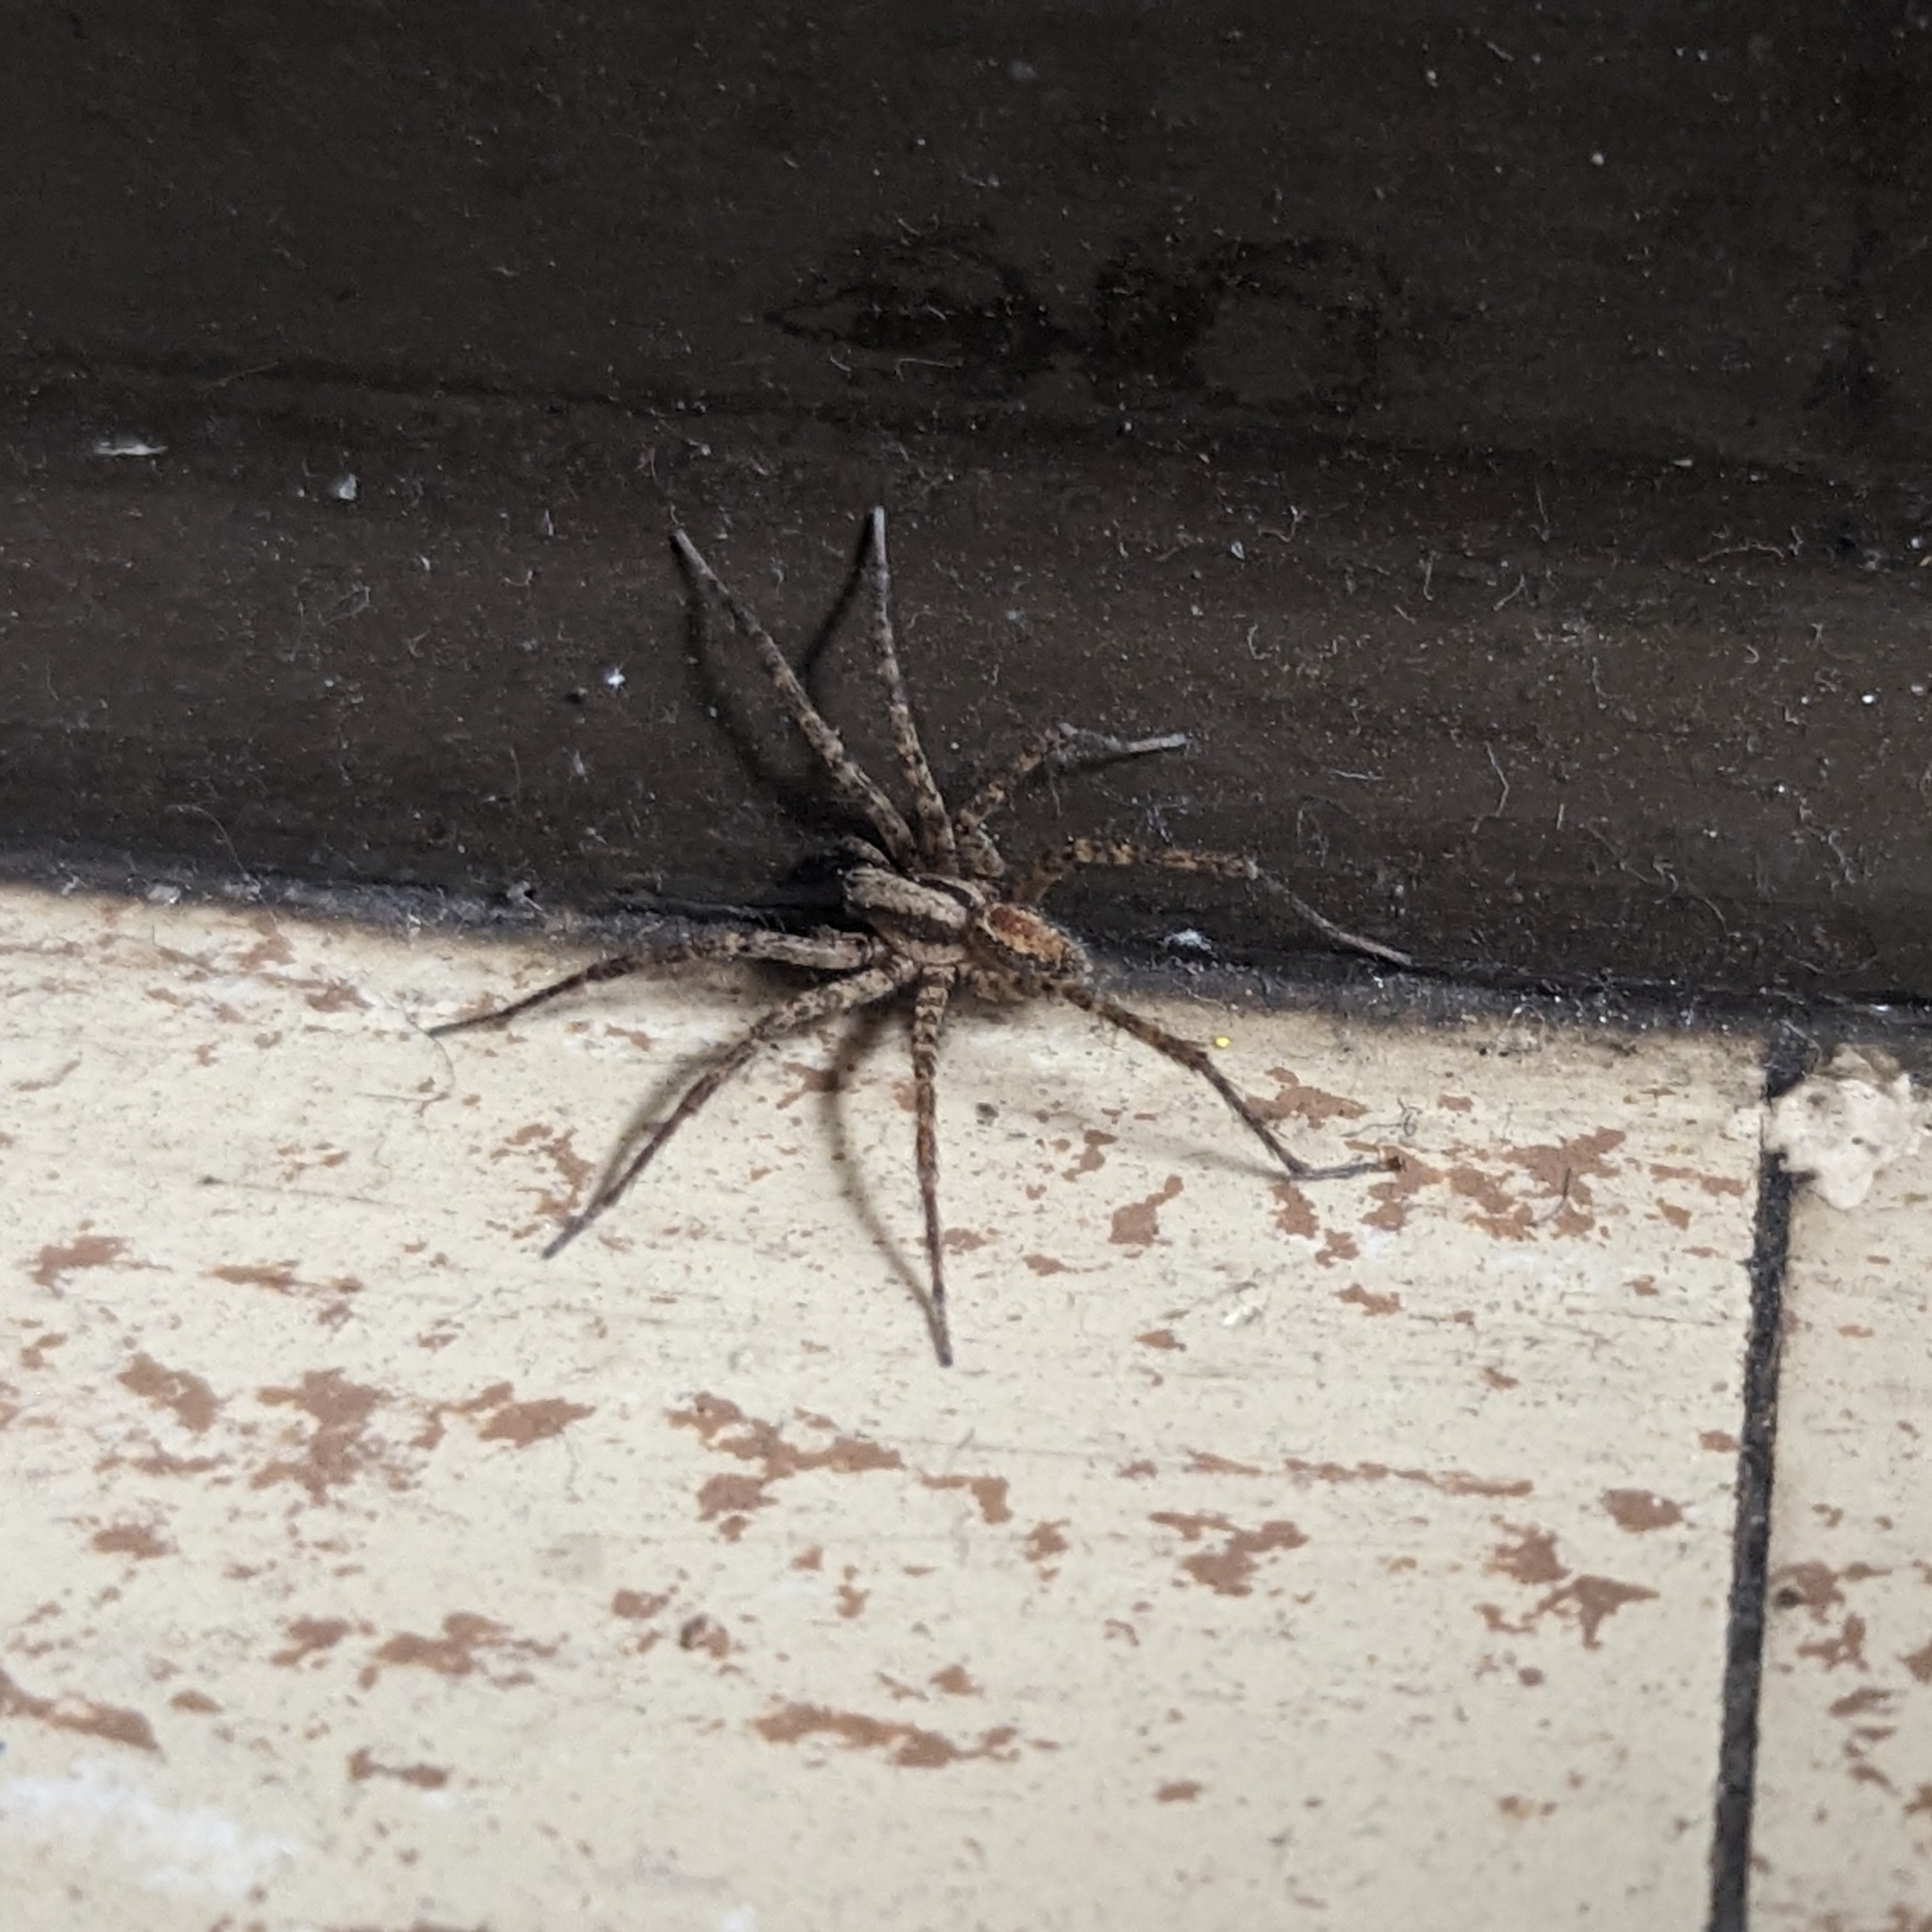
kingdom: Animalia
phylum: Arthropoda
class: Arachnida
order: Araneae
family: Agelenidae
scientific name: Agelenidae
